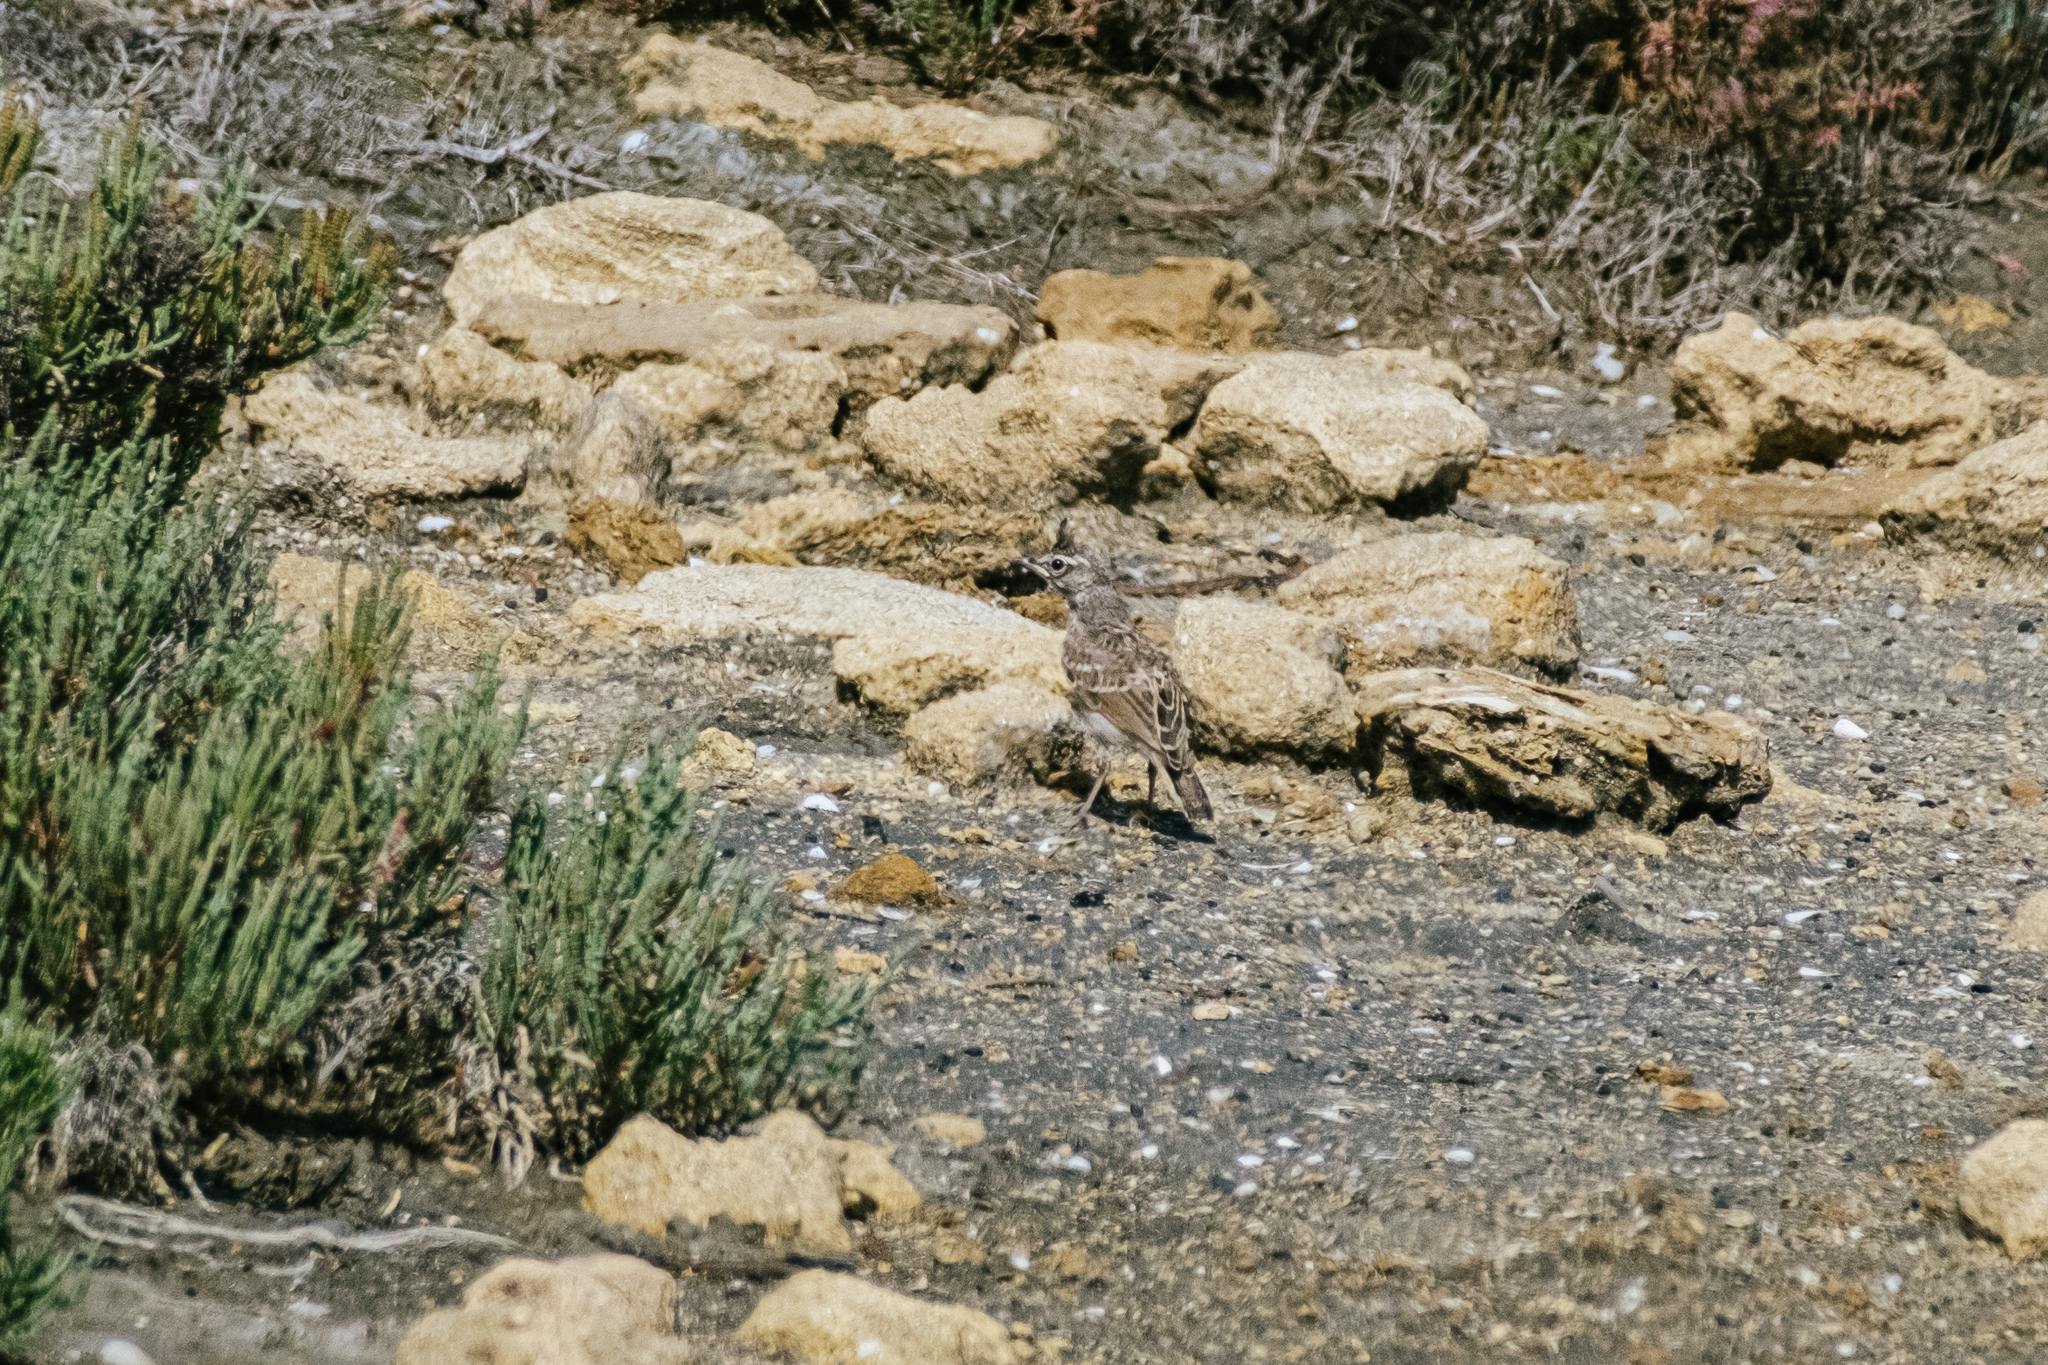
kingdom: Animalia
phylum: Chordata
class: Aves
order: Passeriformes
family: Alaudidae
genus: Galerida
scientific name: Galerida cristata
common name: Crested lark
